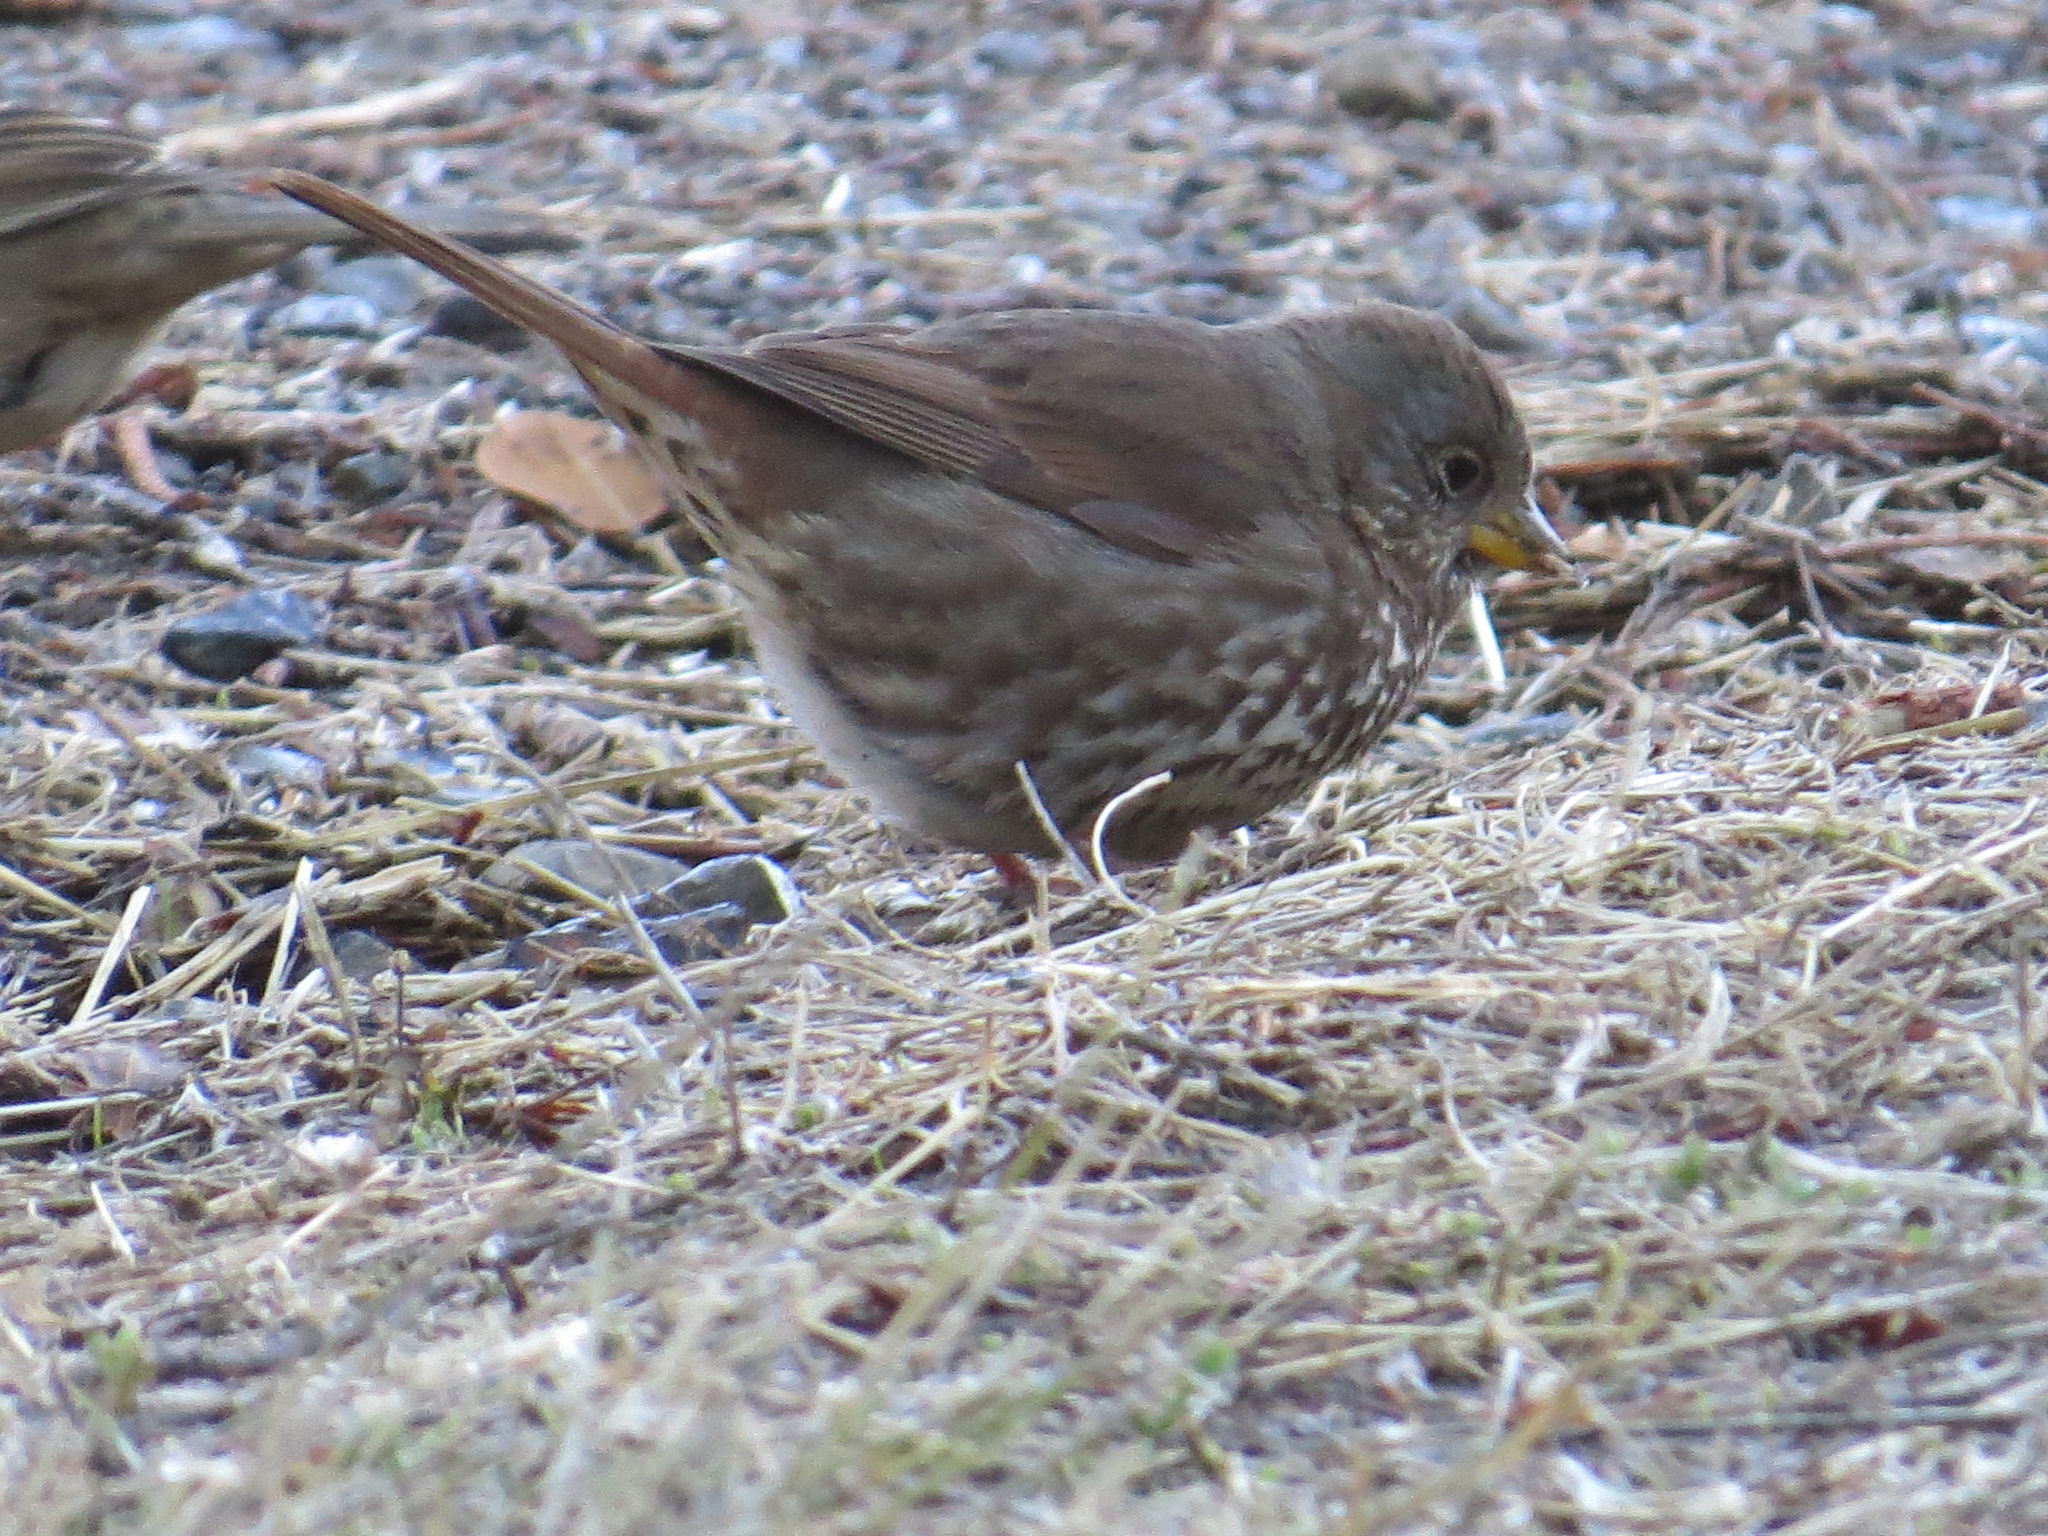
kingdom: Animalia
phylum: Chordata
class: Aves
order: Passeriformes
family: Passerellidae
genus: Passerella
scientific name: Passerella iliaca
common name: Fox sparrow
